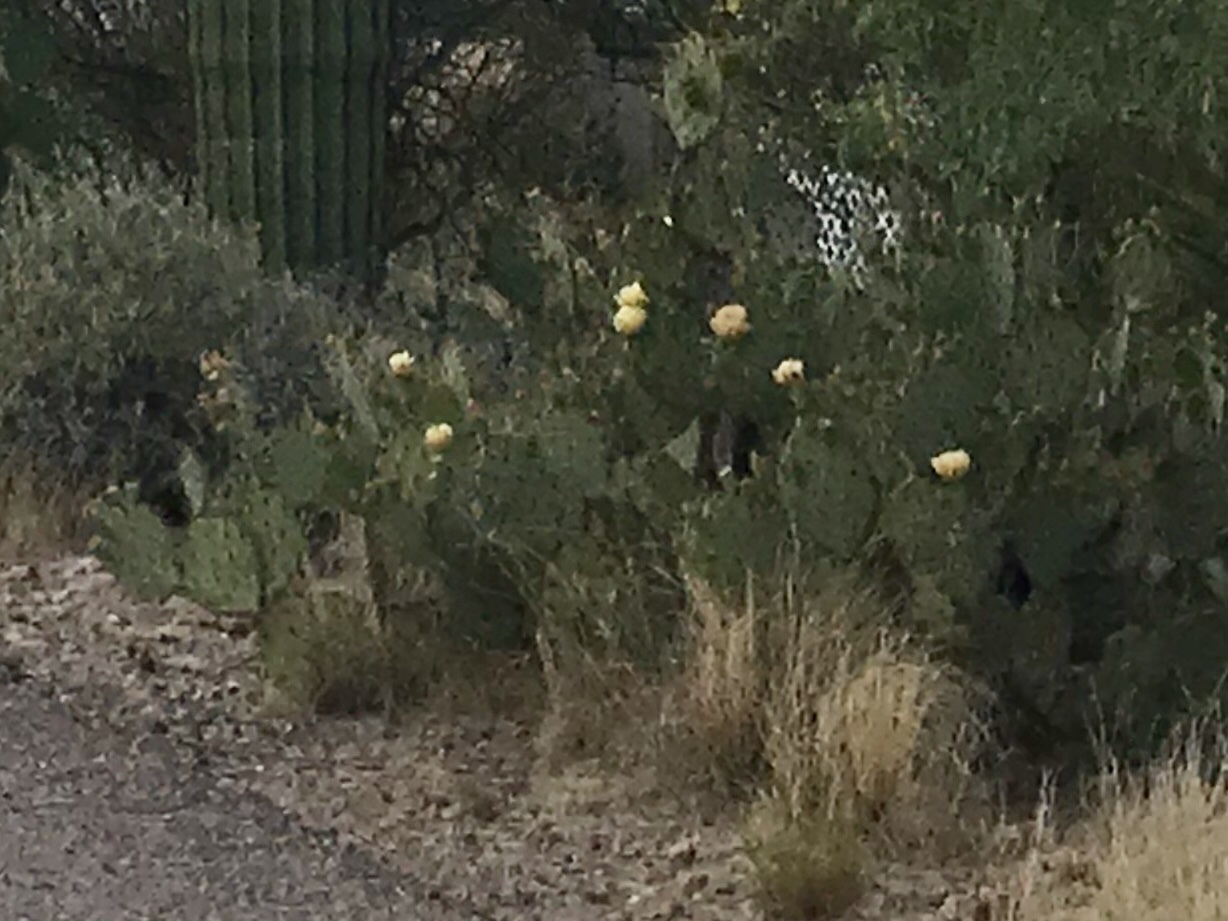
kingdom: Plantae
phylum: Tracheophyta
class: Magnoliopsida
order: Caryophyllales
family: Cactaceae
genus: Opuntia
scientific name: Opuntia engelmannii
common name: Cactus-apple
